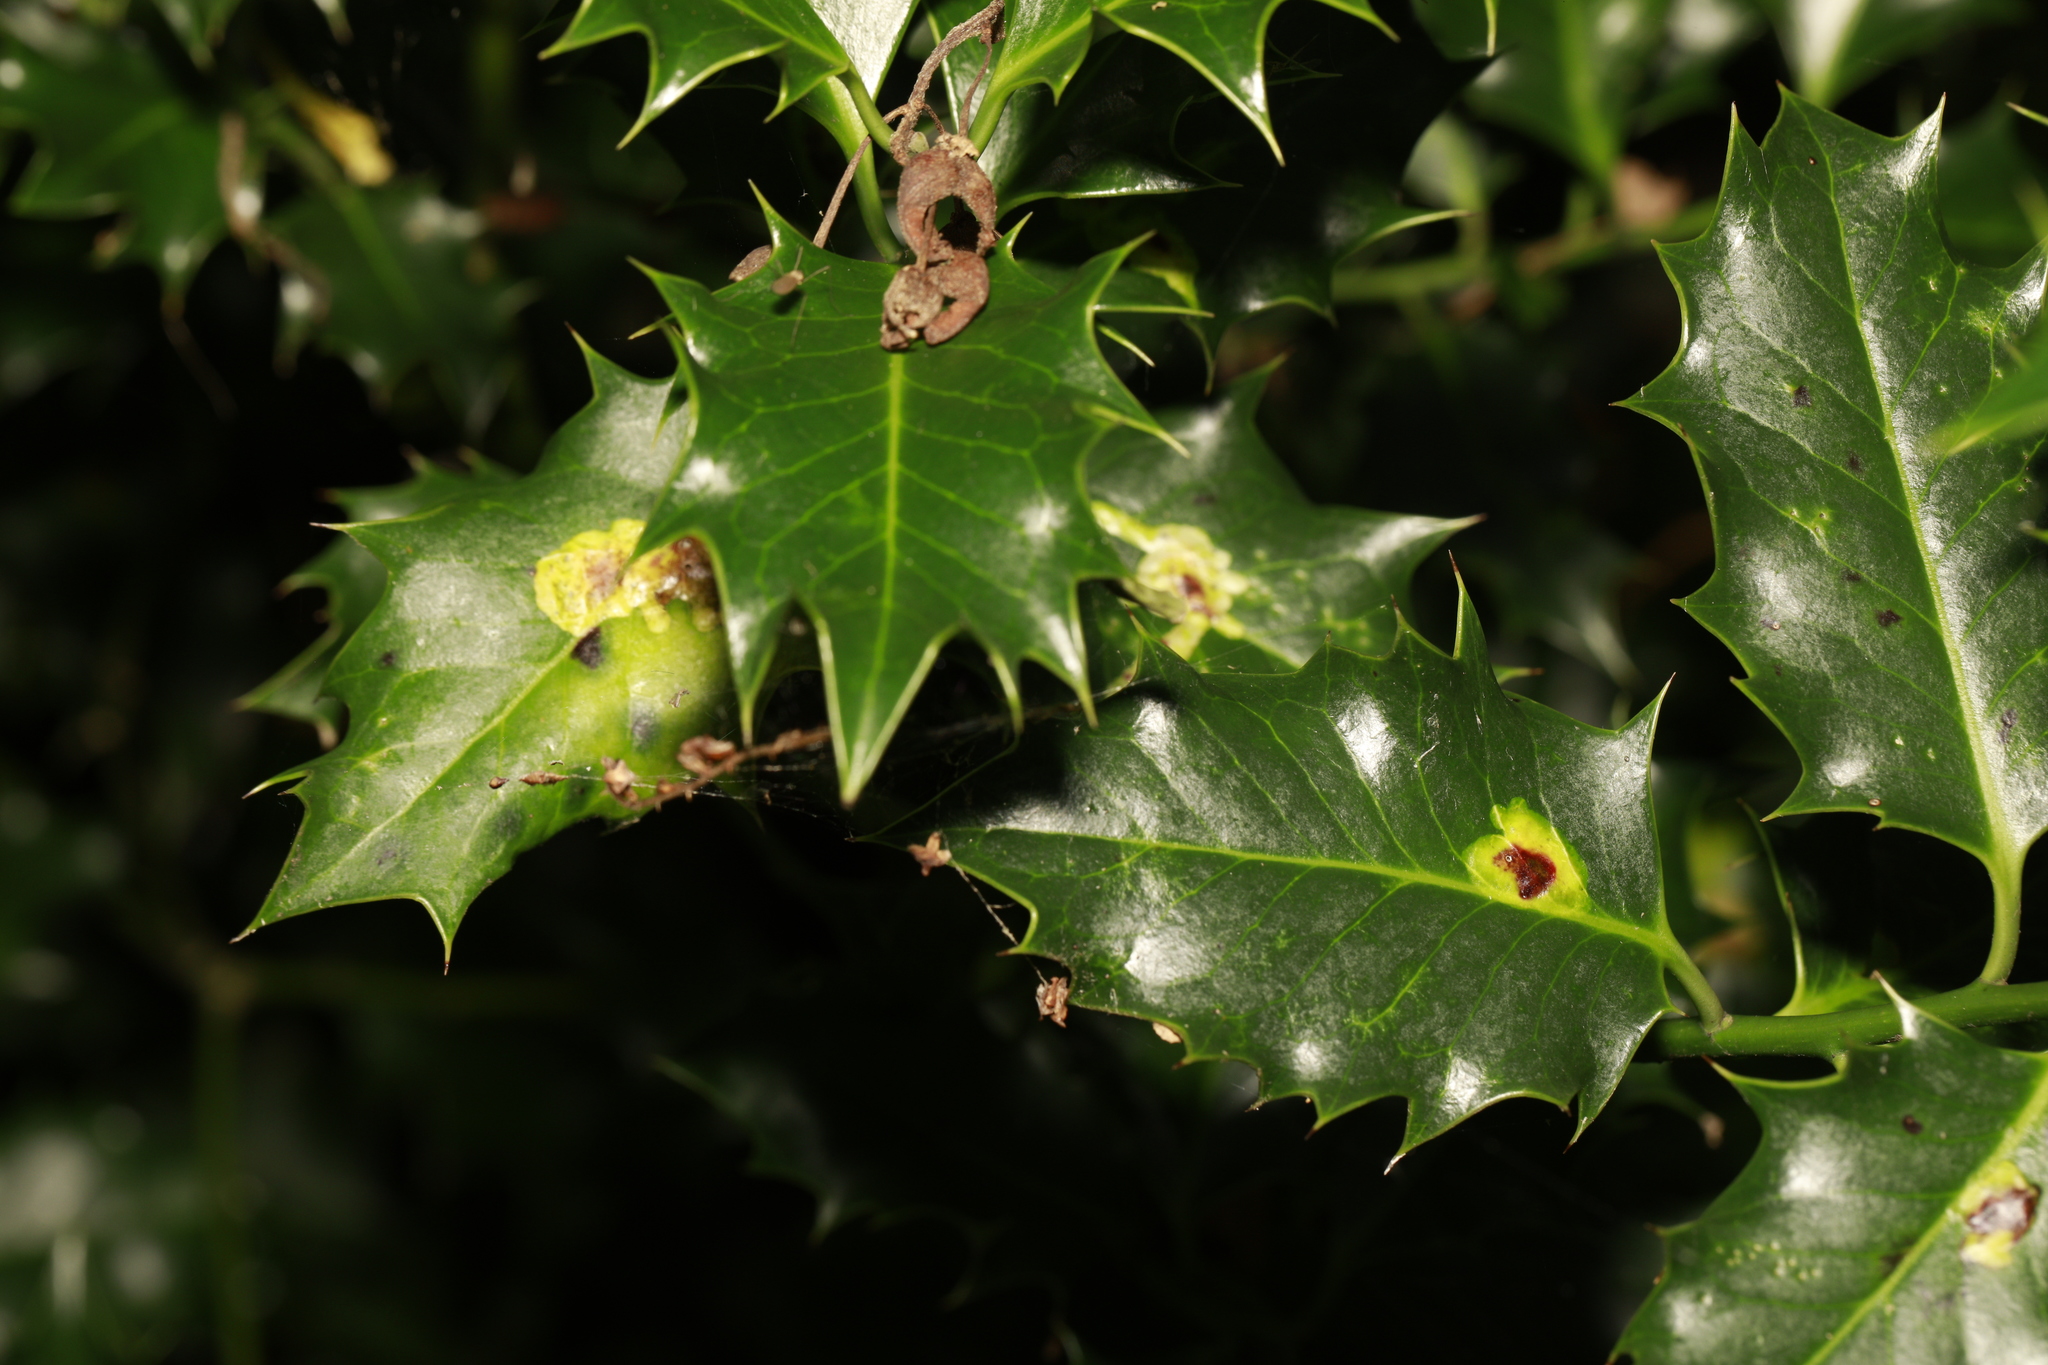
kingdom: Animalia
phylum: Arthropoda
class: Insecta
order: Diptera
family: Agromyzidae
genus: Phytomyza
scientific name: Phytomyza ilicis
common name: Holly leafminer
